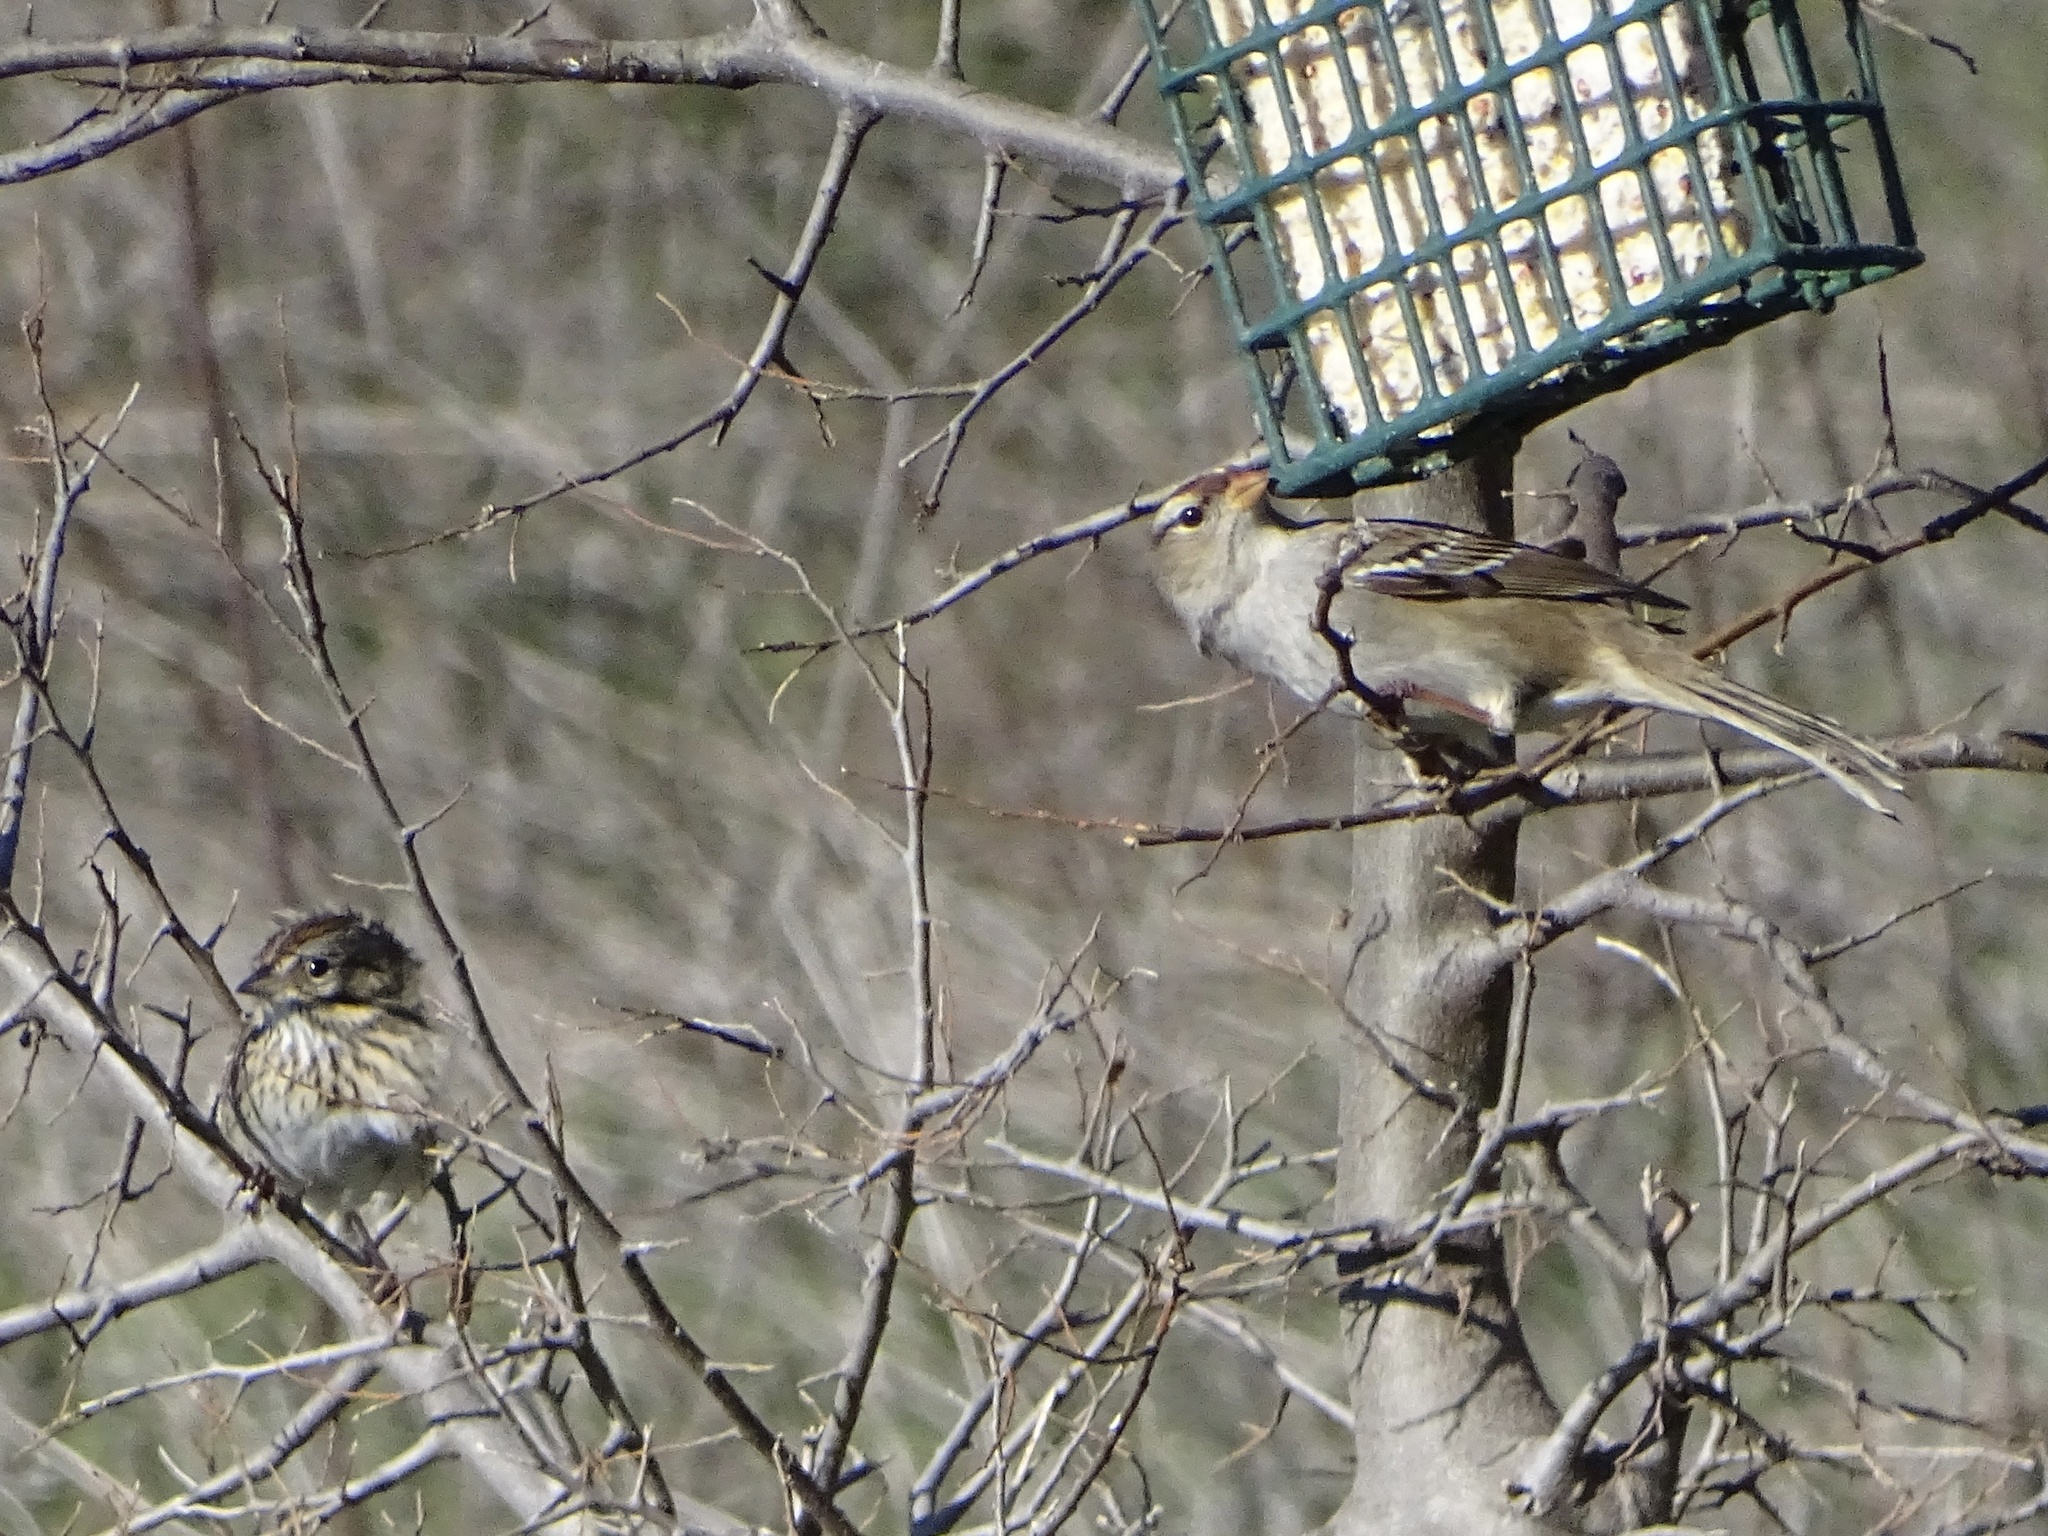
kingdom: Animalia
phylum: Chordata
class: Aves
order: Passeriformes
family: Passerellidae
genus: Zonotrichia
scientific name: Zonotrichia leucophrys
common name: White-crowned sparrow
